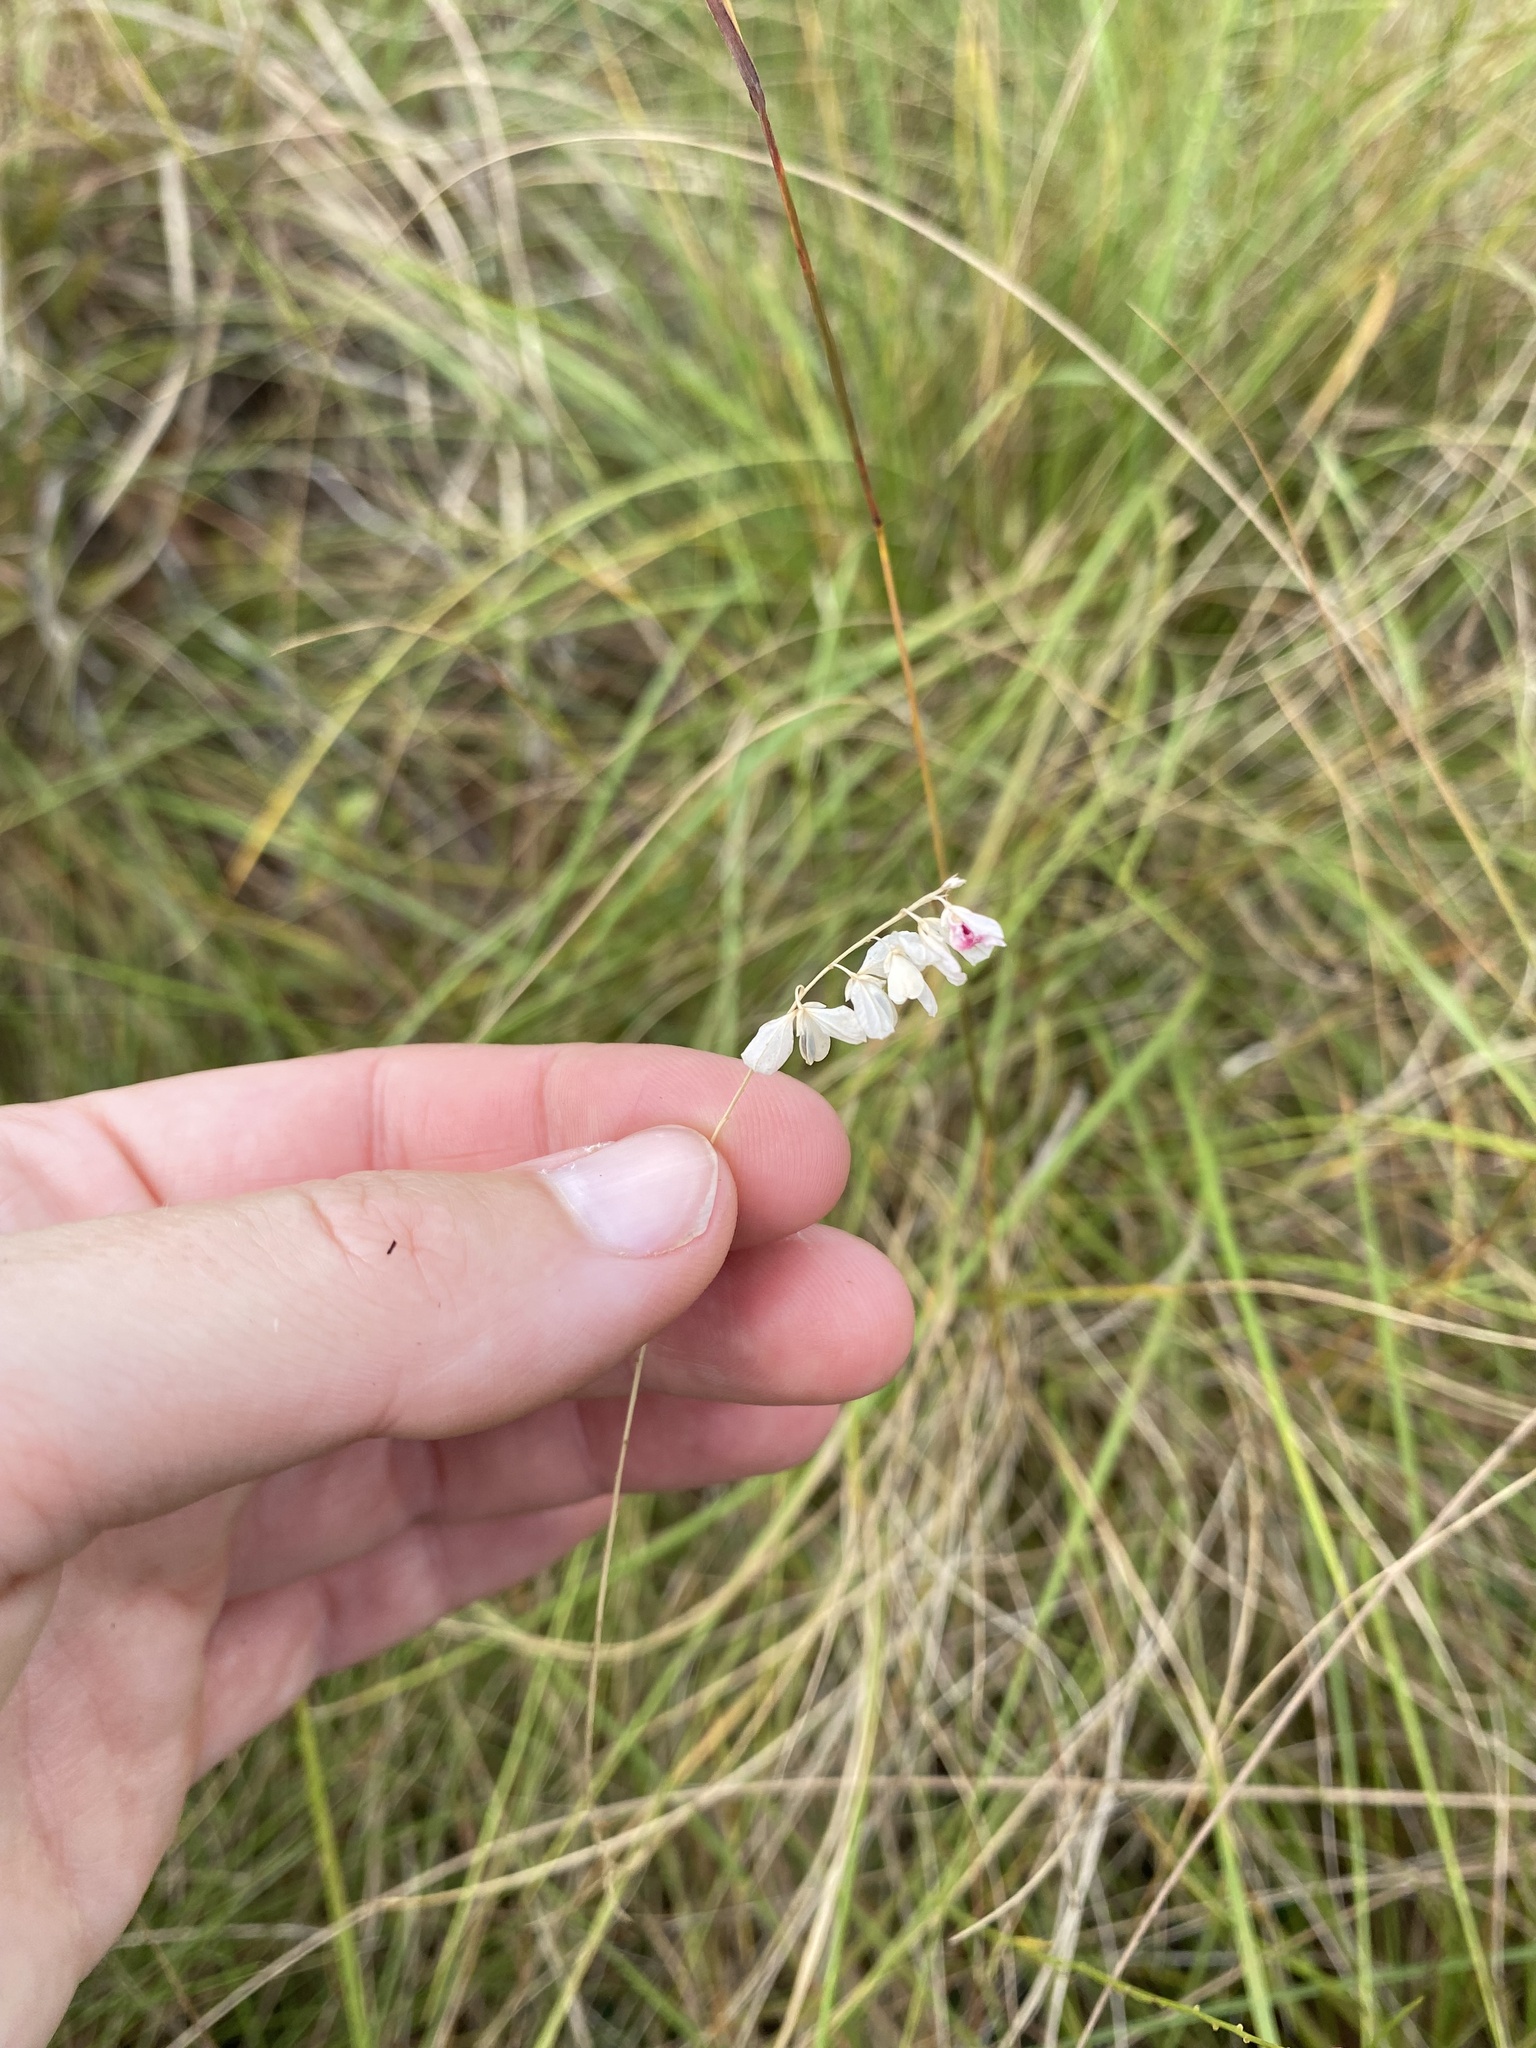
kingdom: Plantae
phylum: Tracheophyta
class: Magnoliopsida
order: Fabales
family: Polygalaceae
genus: Polygala
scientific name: Polygala hottentotta
